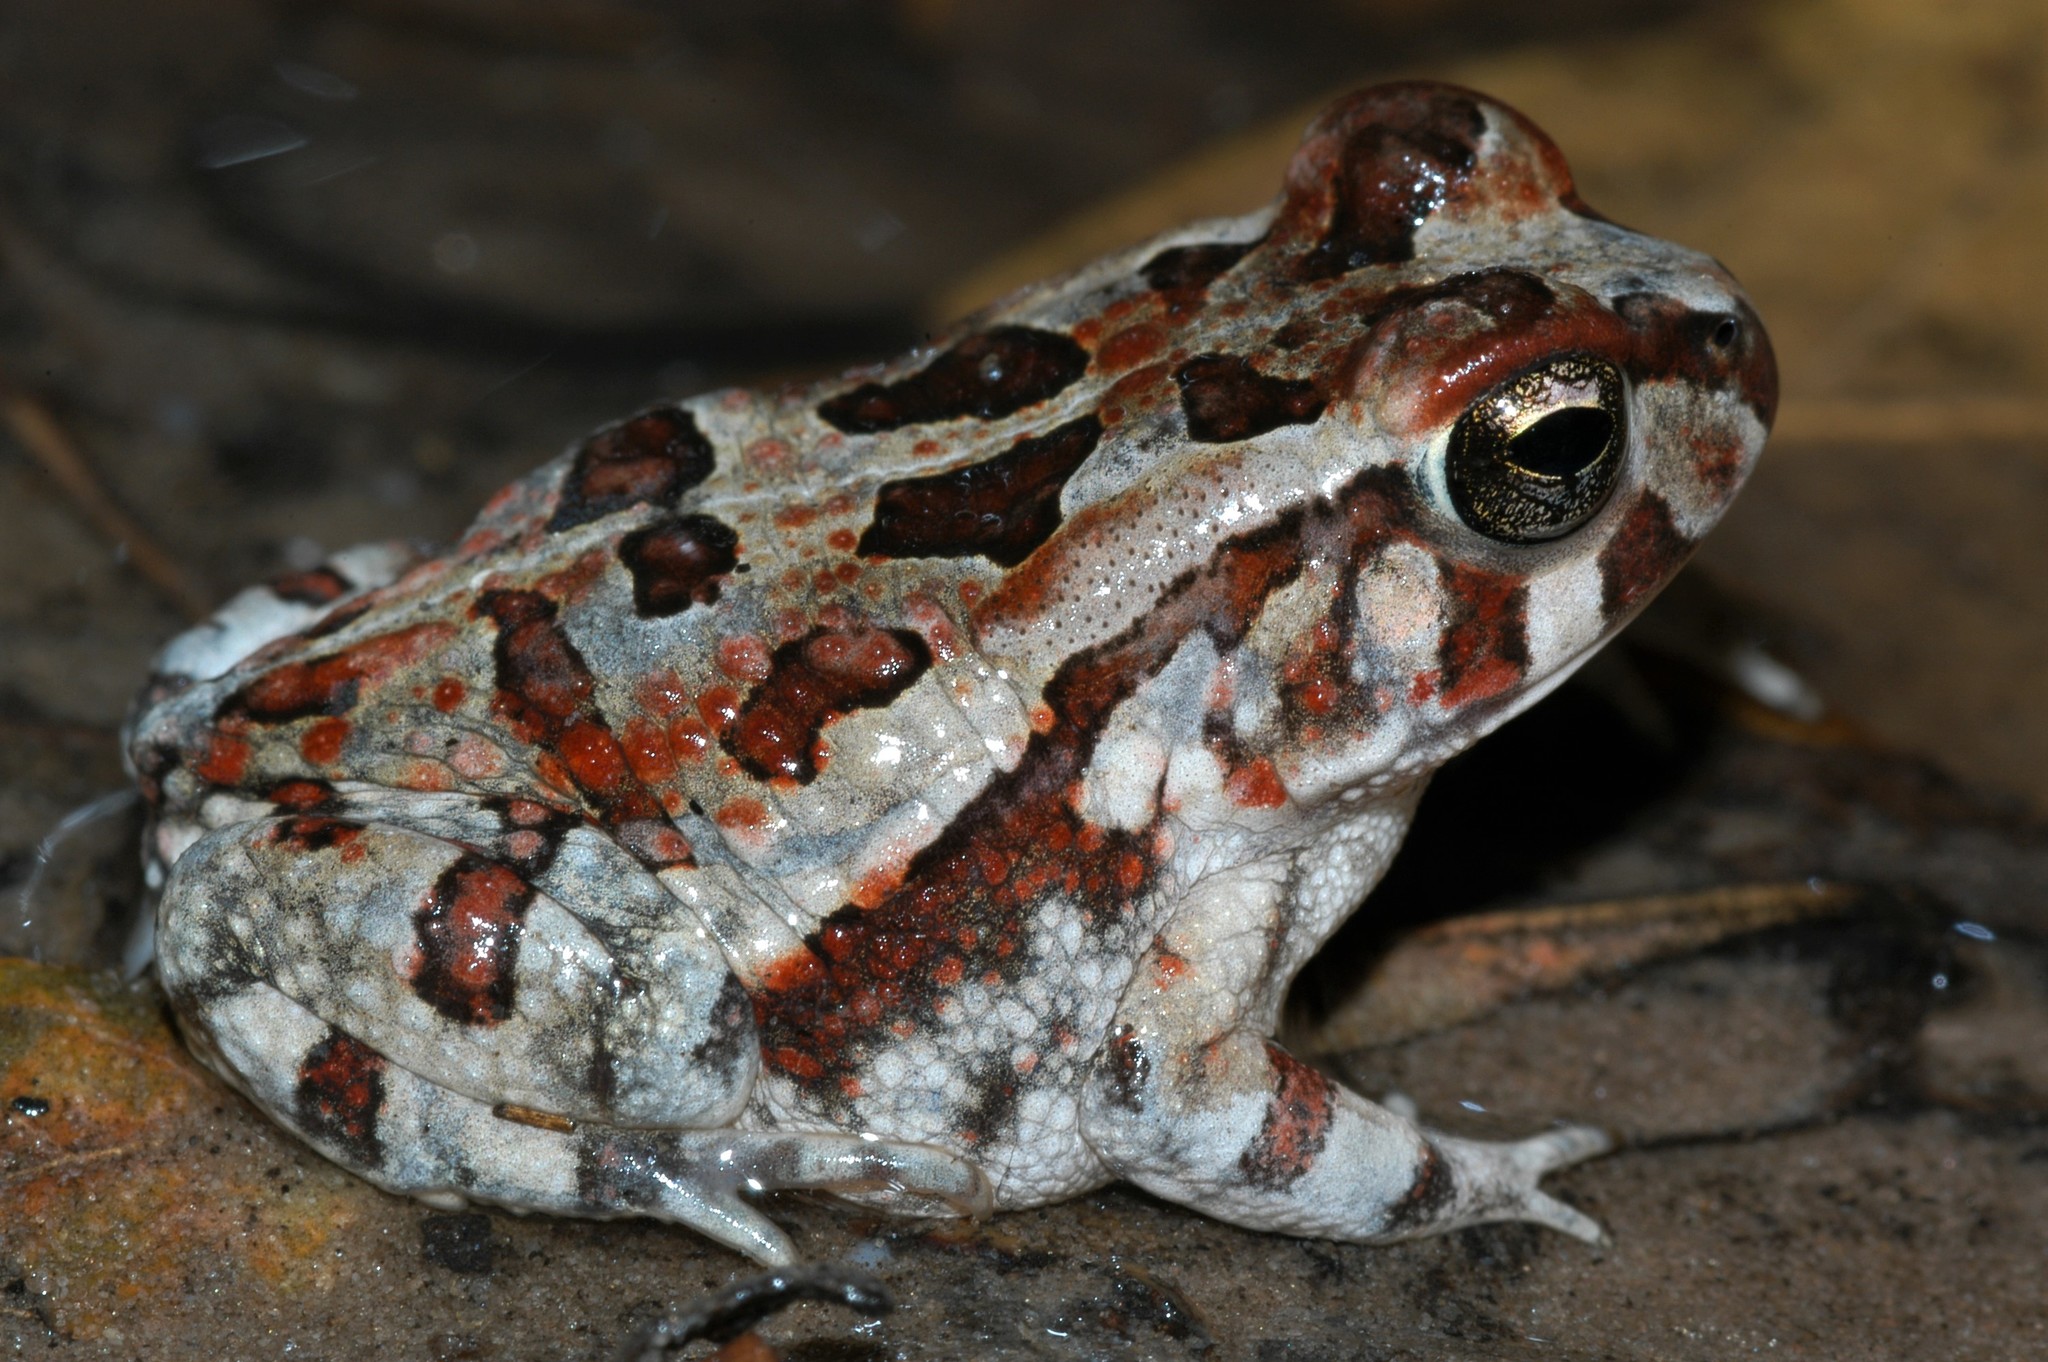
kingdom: Animalia
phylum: Chordata
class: Amphibia
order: Anura
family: Bufonidae
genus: Sclerophrys
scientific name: Sclerophrys poweri
